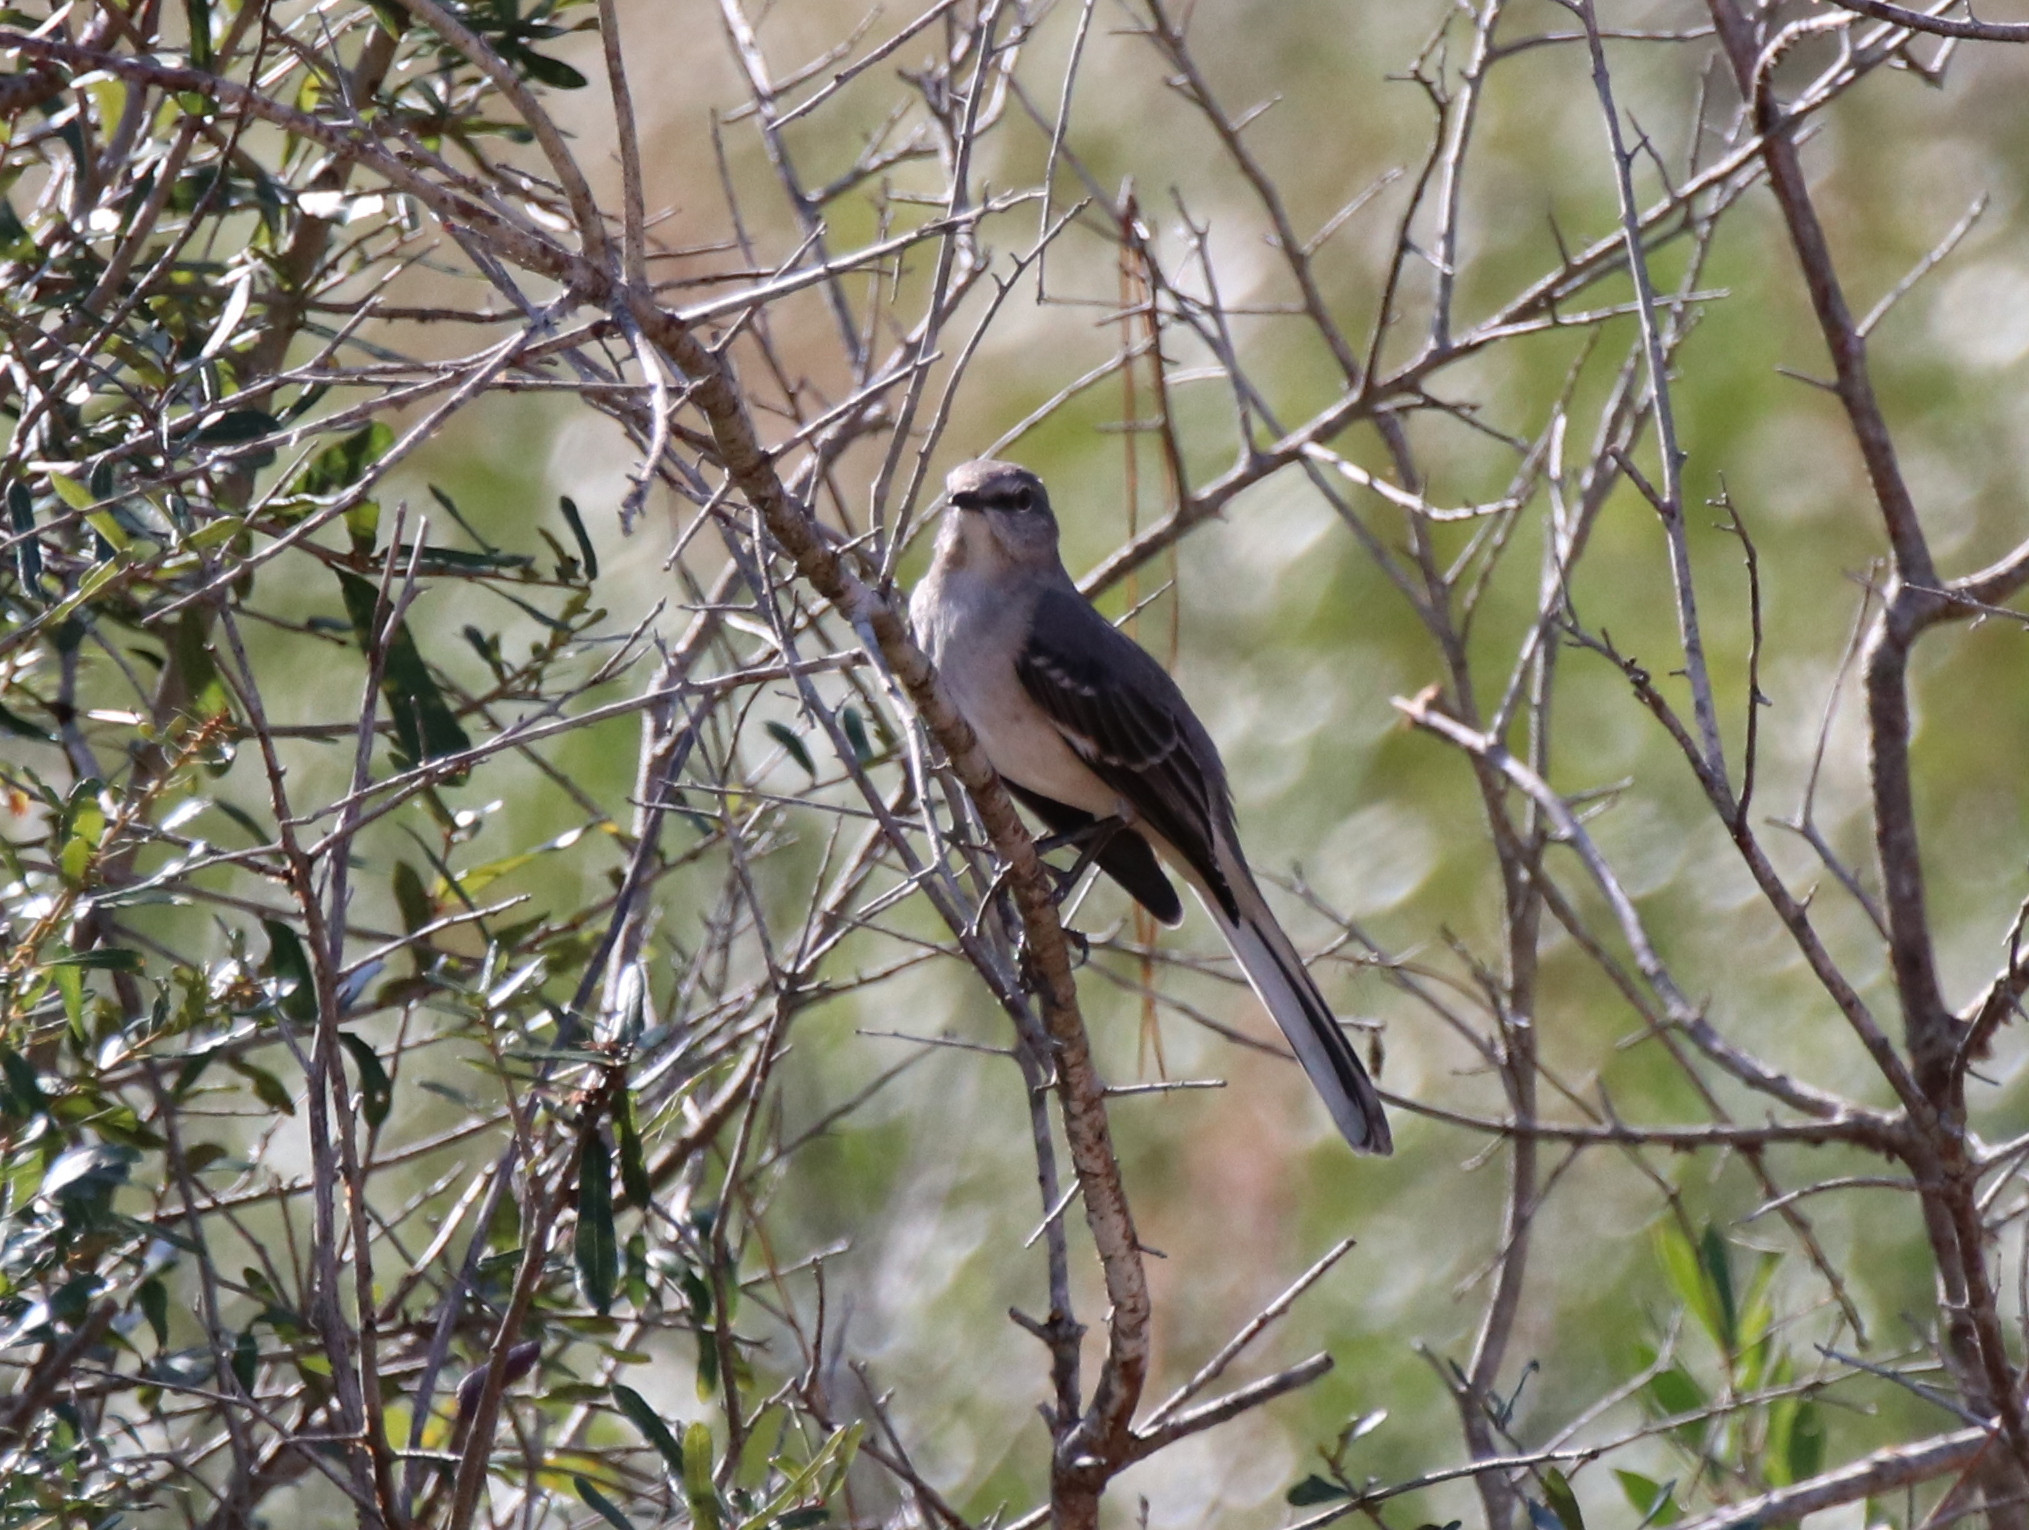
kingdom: Animalia
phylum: Chordata
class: Aves
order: Passeriformes
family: Mimidae
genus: Mimus
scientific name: Mimus polyglottos
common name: Northern mockingbird
